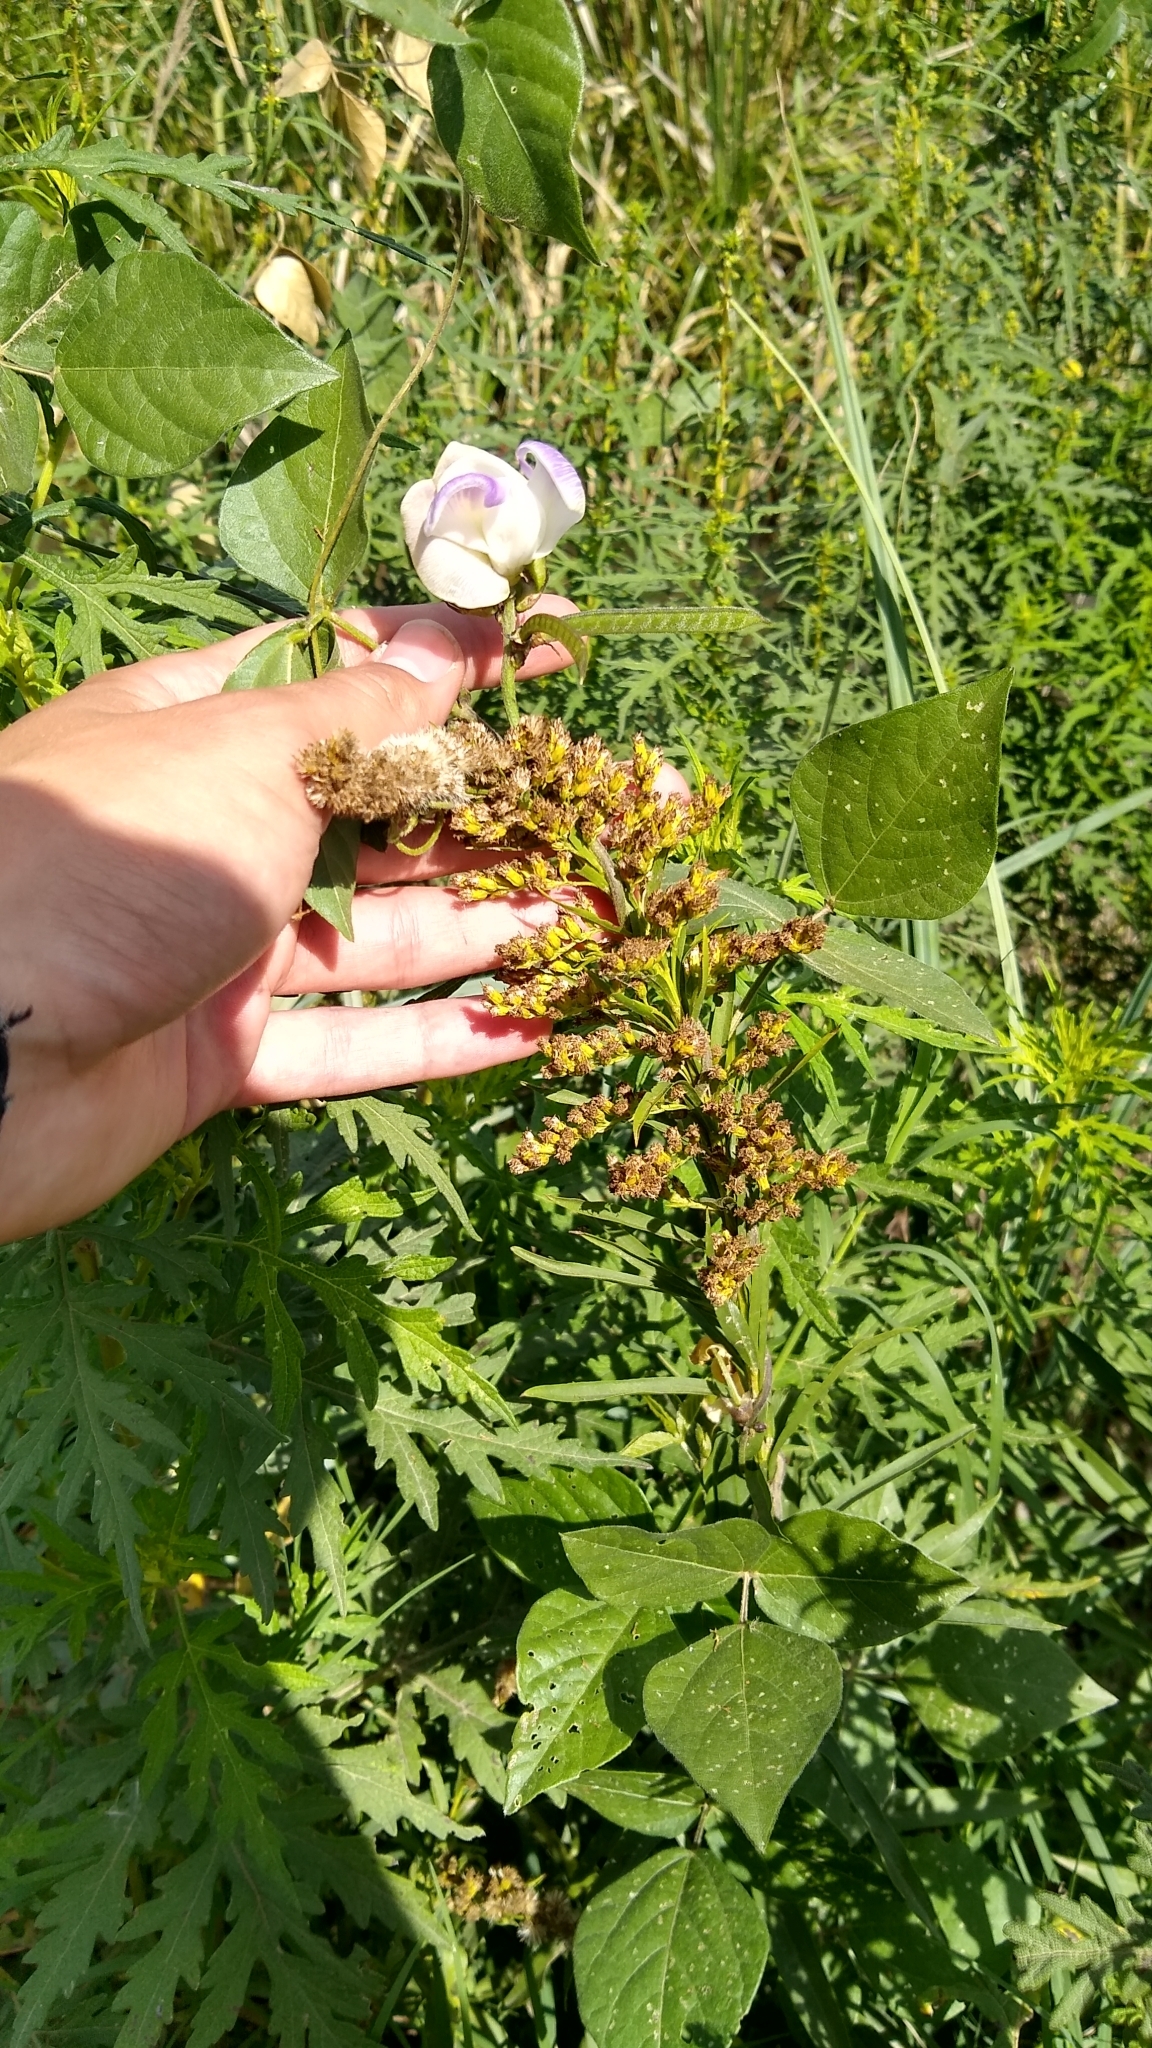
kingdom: Plantae
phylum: Tracheophyta
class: Magnoliopsida
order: Fabales
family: Fabaceae
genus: Leptospron
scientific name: Leptospron adenanthum
